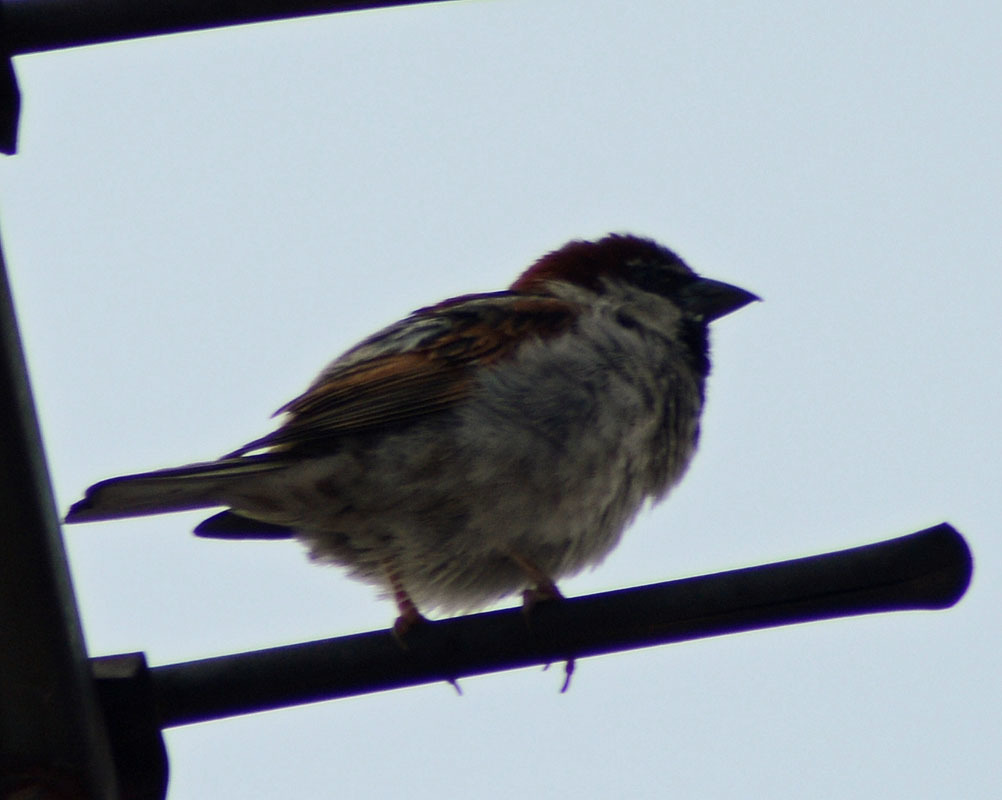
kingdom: Animalia
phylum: Chordata
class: Aves
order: Passeriformes
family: Passeridae
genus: Passer
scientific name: Passer domesticus
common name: House sparrow
